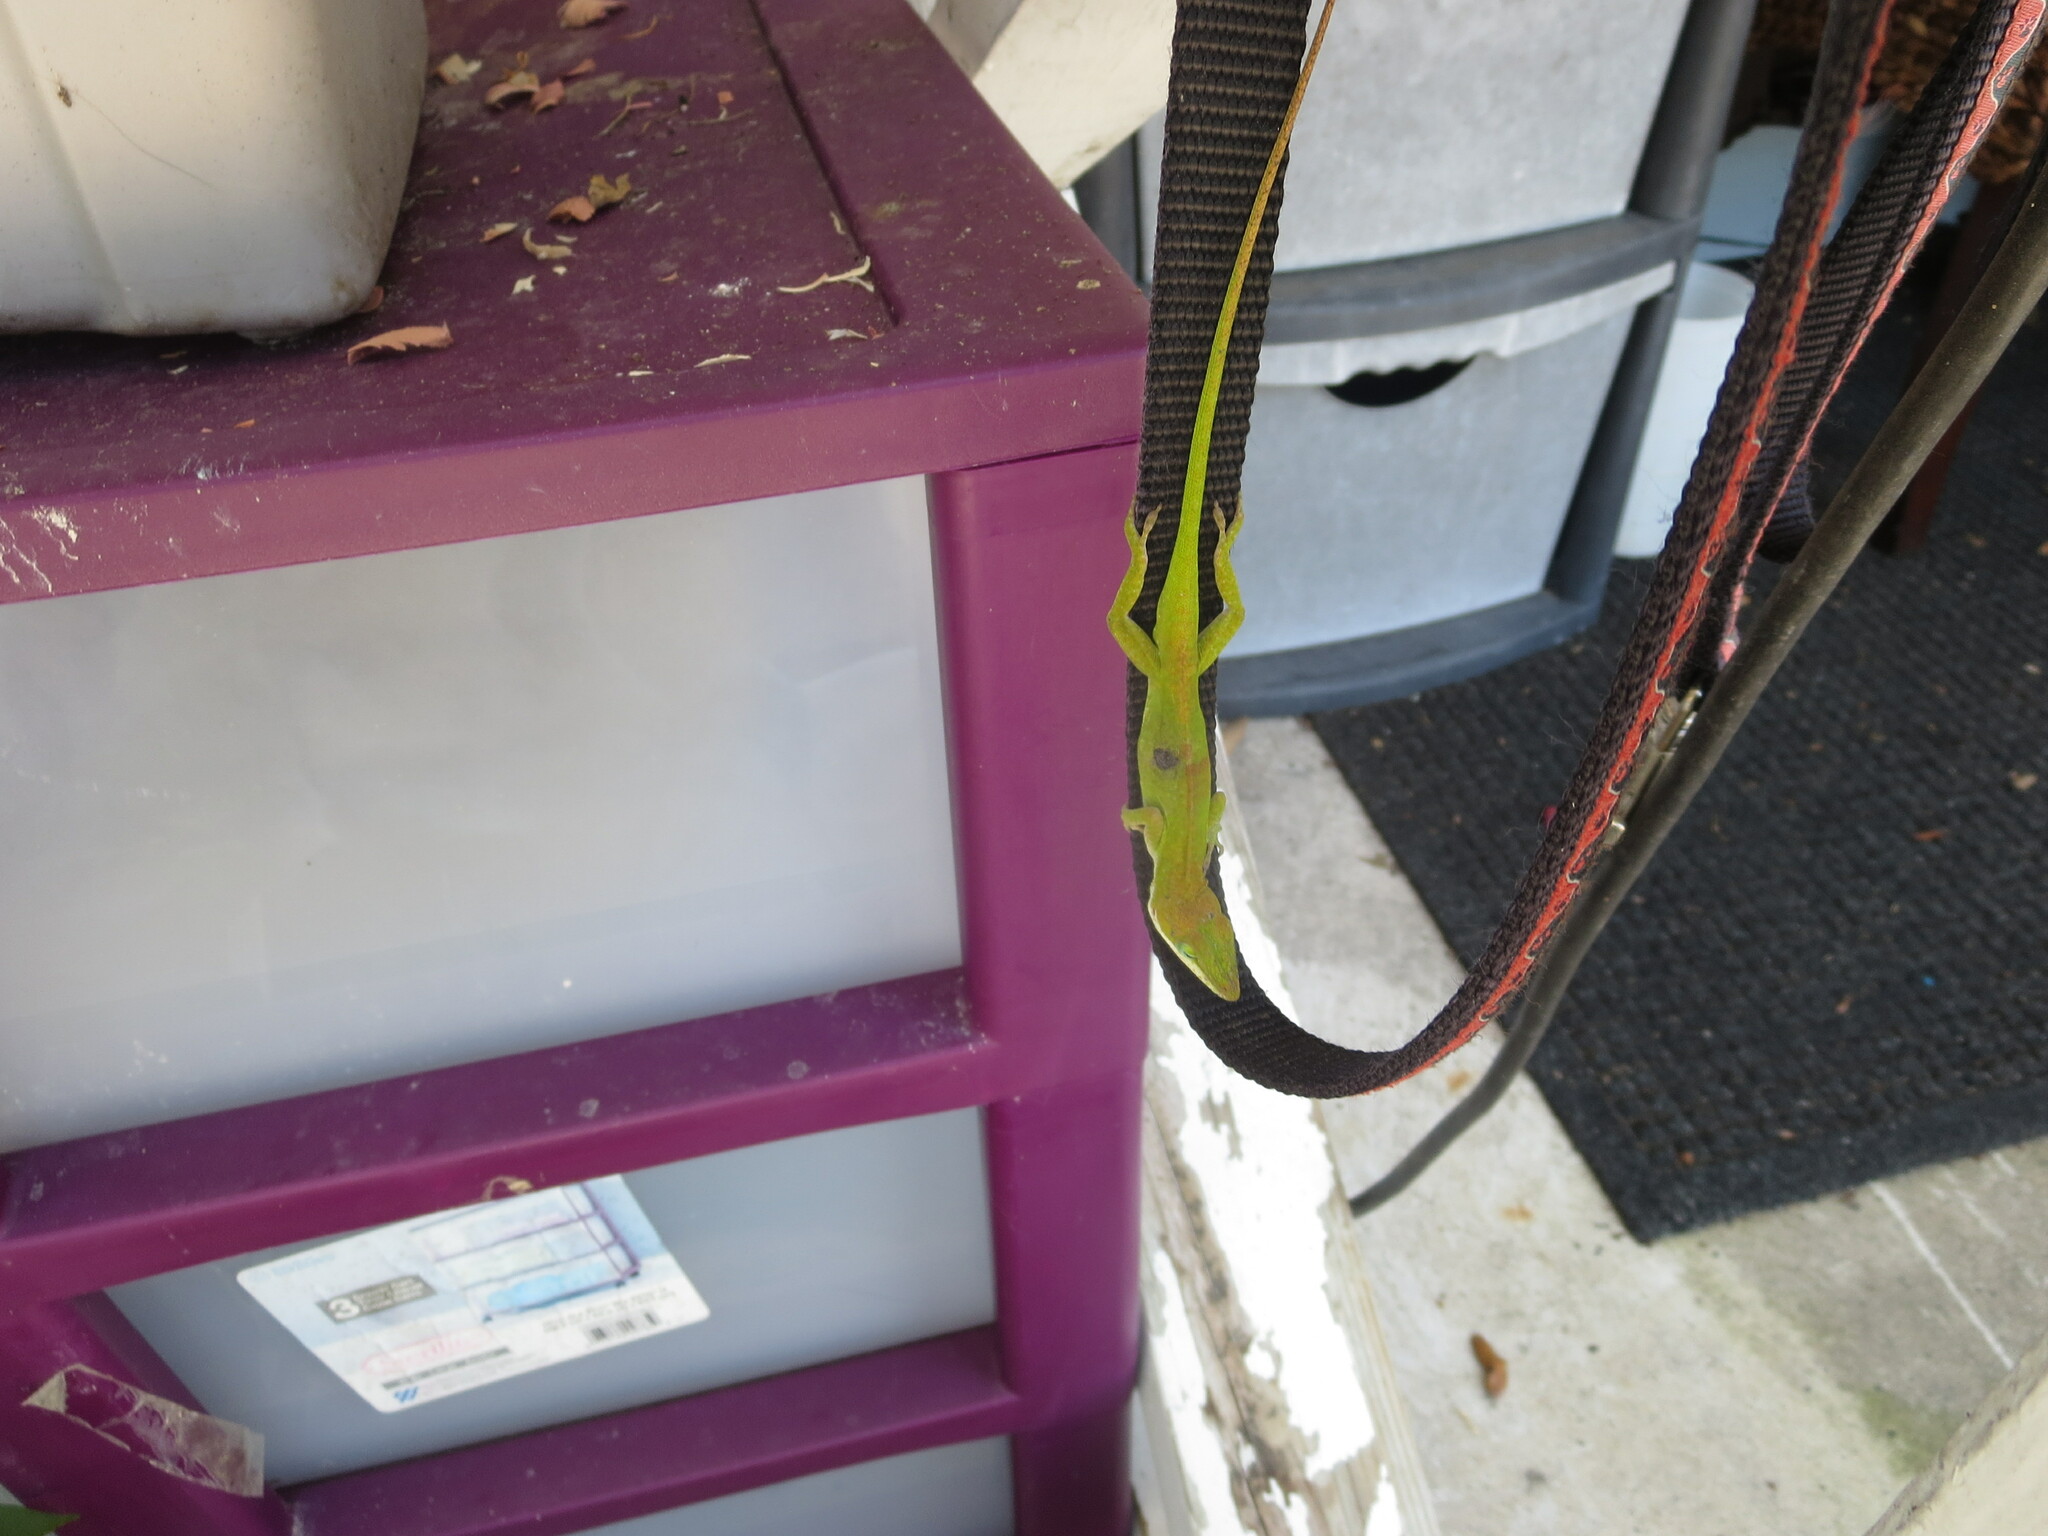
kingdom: Animalia
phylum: Chordata
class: Squamata
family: Dactyloidae
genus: Anolis
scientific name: Anolis carolinensis
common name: Green anole
